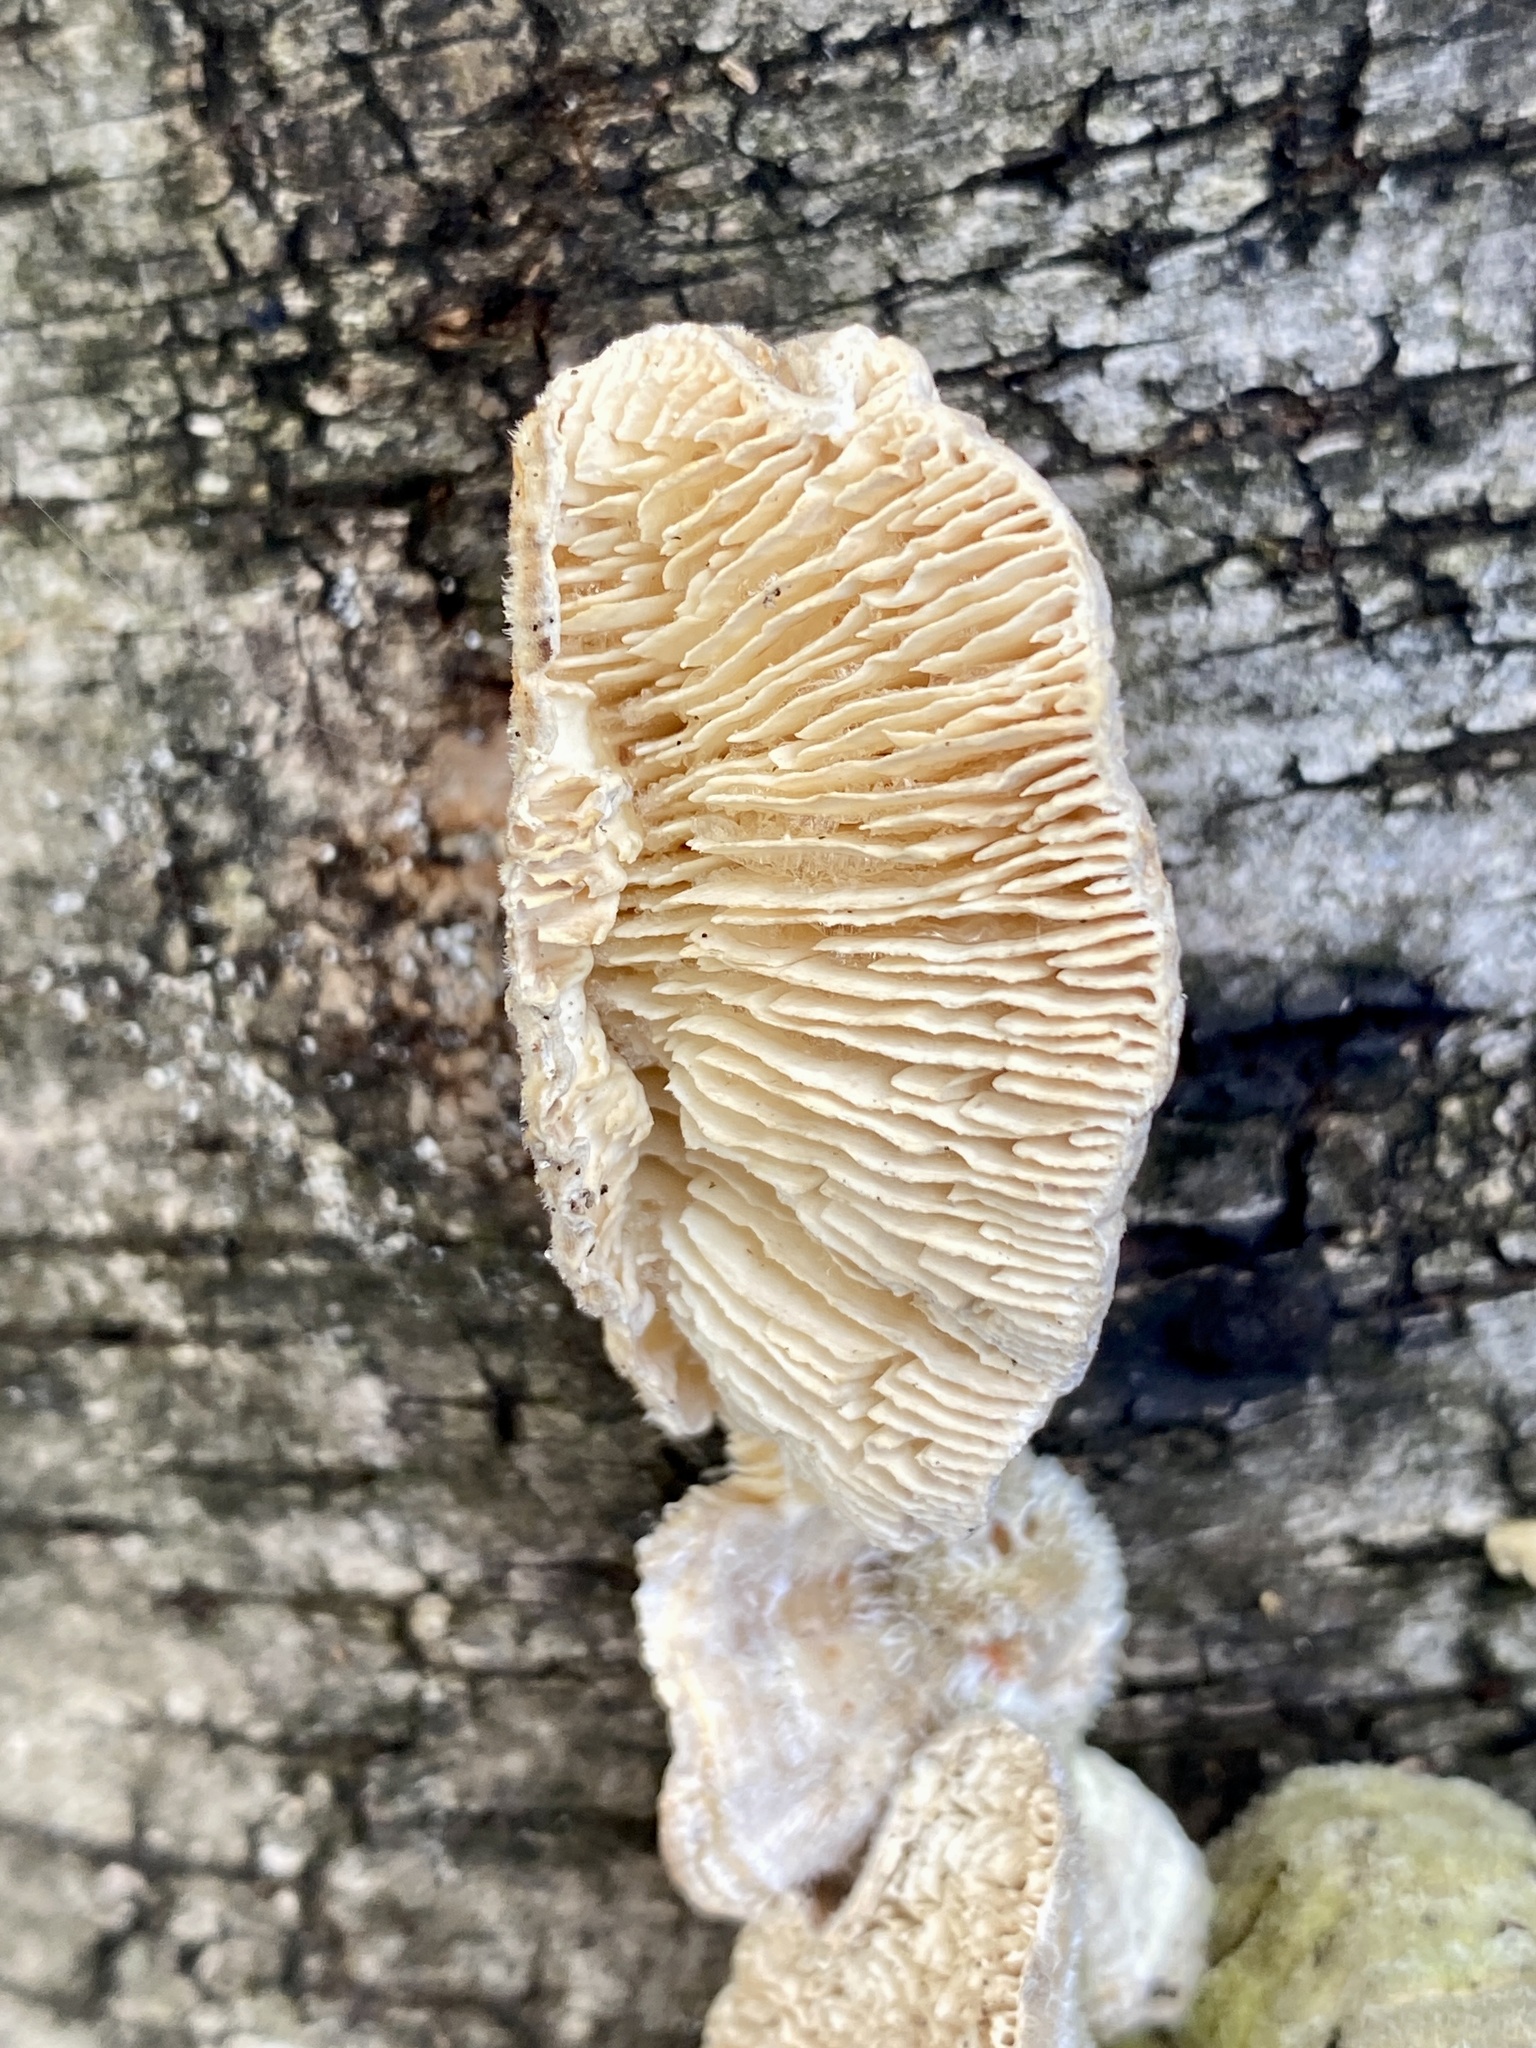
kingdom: Fungi
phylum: Basidiomycota
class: Agaricomycetes
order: Polyporales
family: Polyporaceae
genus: Lenzites
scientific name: Lenzites betulinus
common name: Birch mazegill
